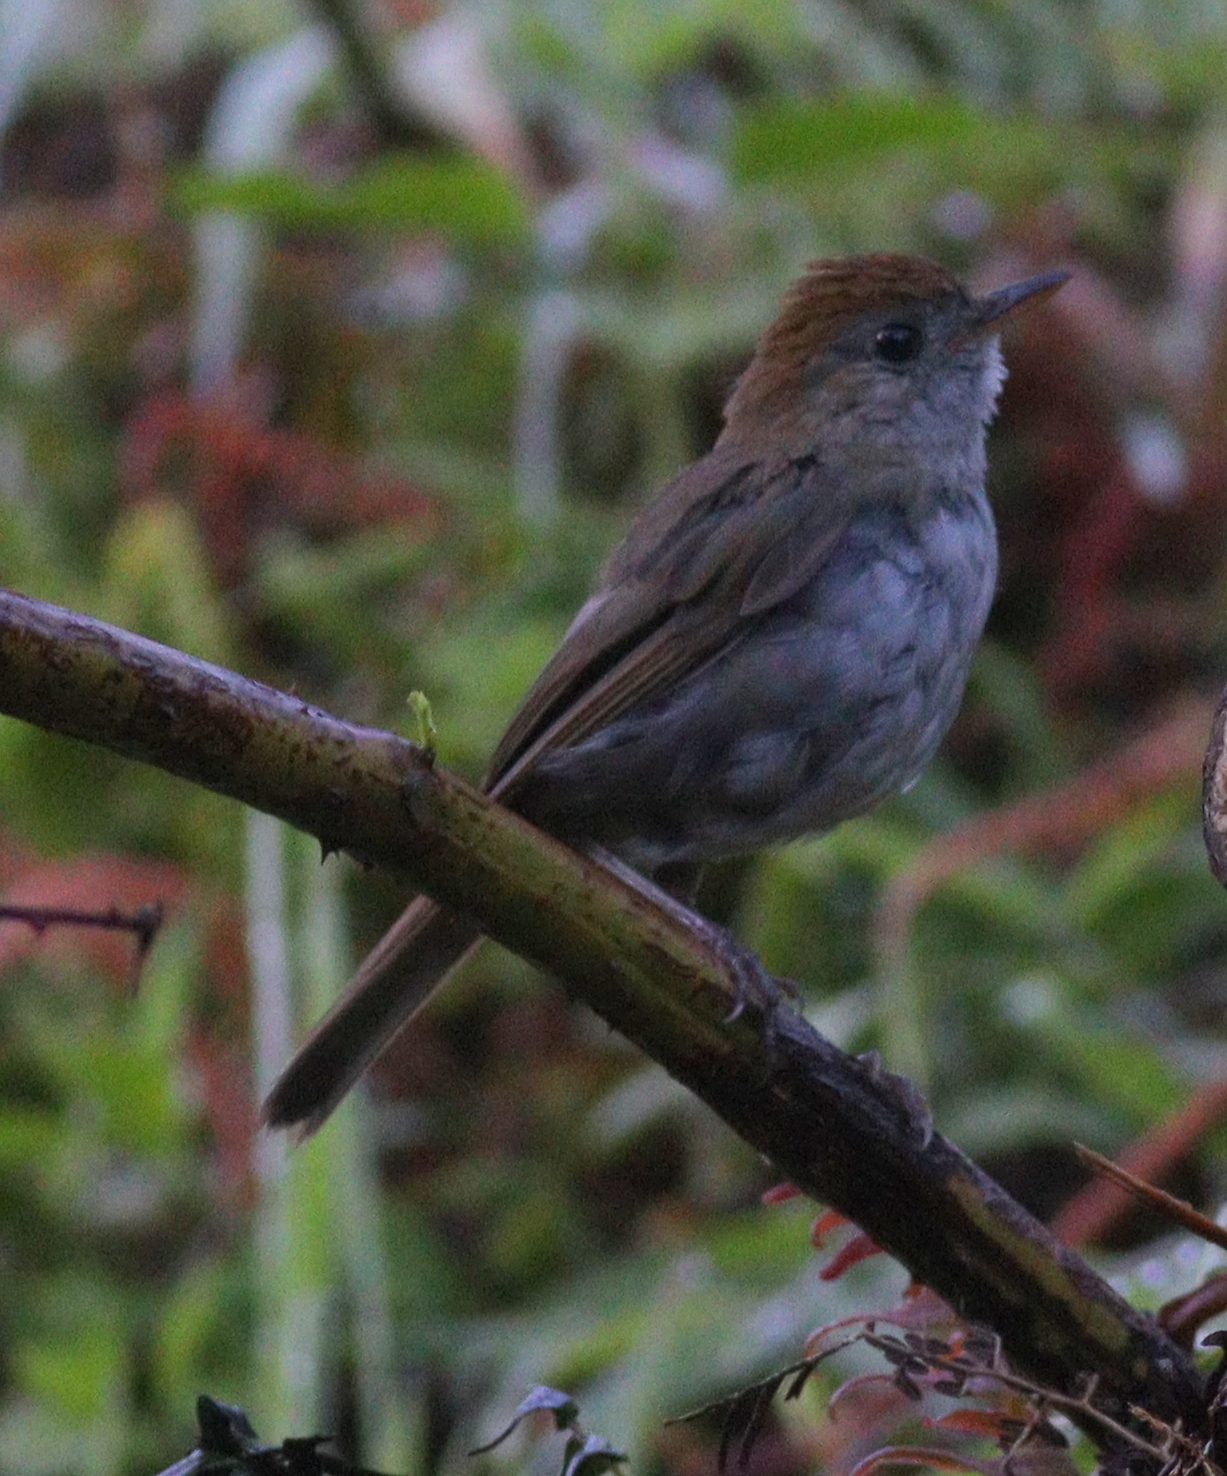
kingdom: Animalia
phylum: Chordata
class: Aves
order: Passeriformes
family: Turdidae
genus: Catharus
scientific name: Catharus frantzii
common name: Ruddy-capped nightingale-thrush
